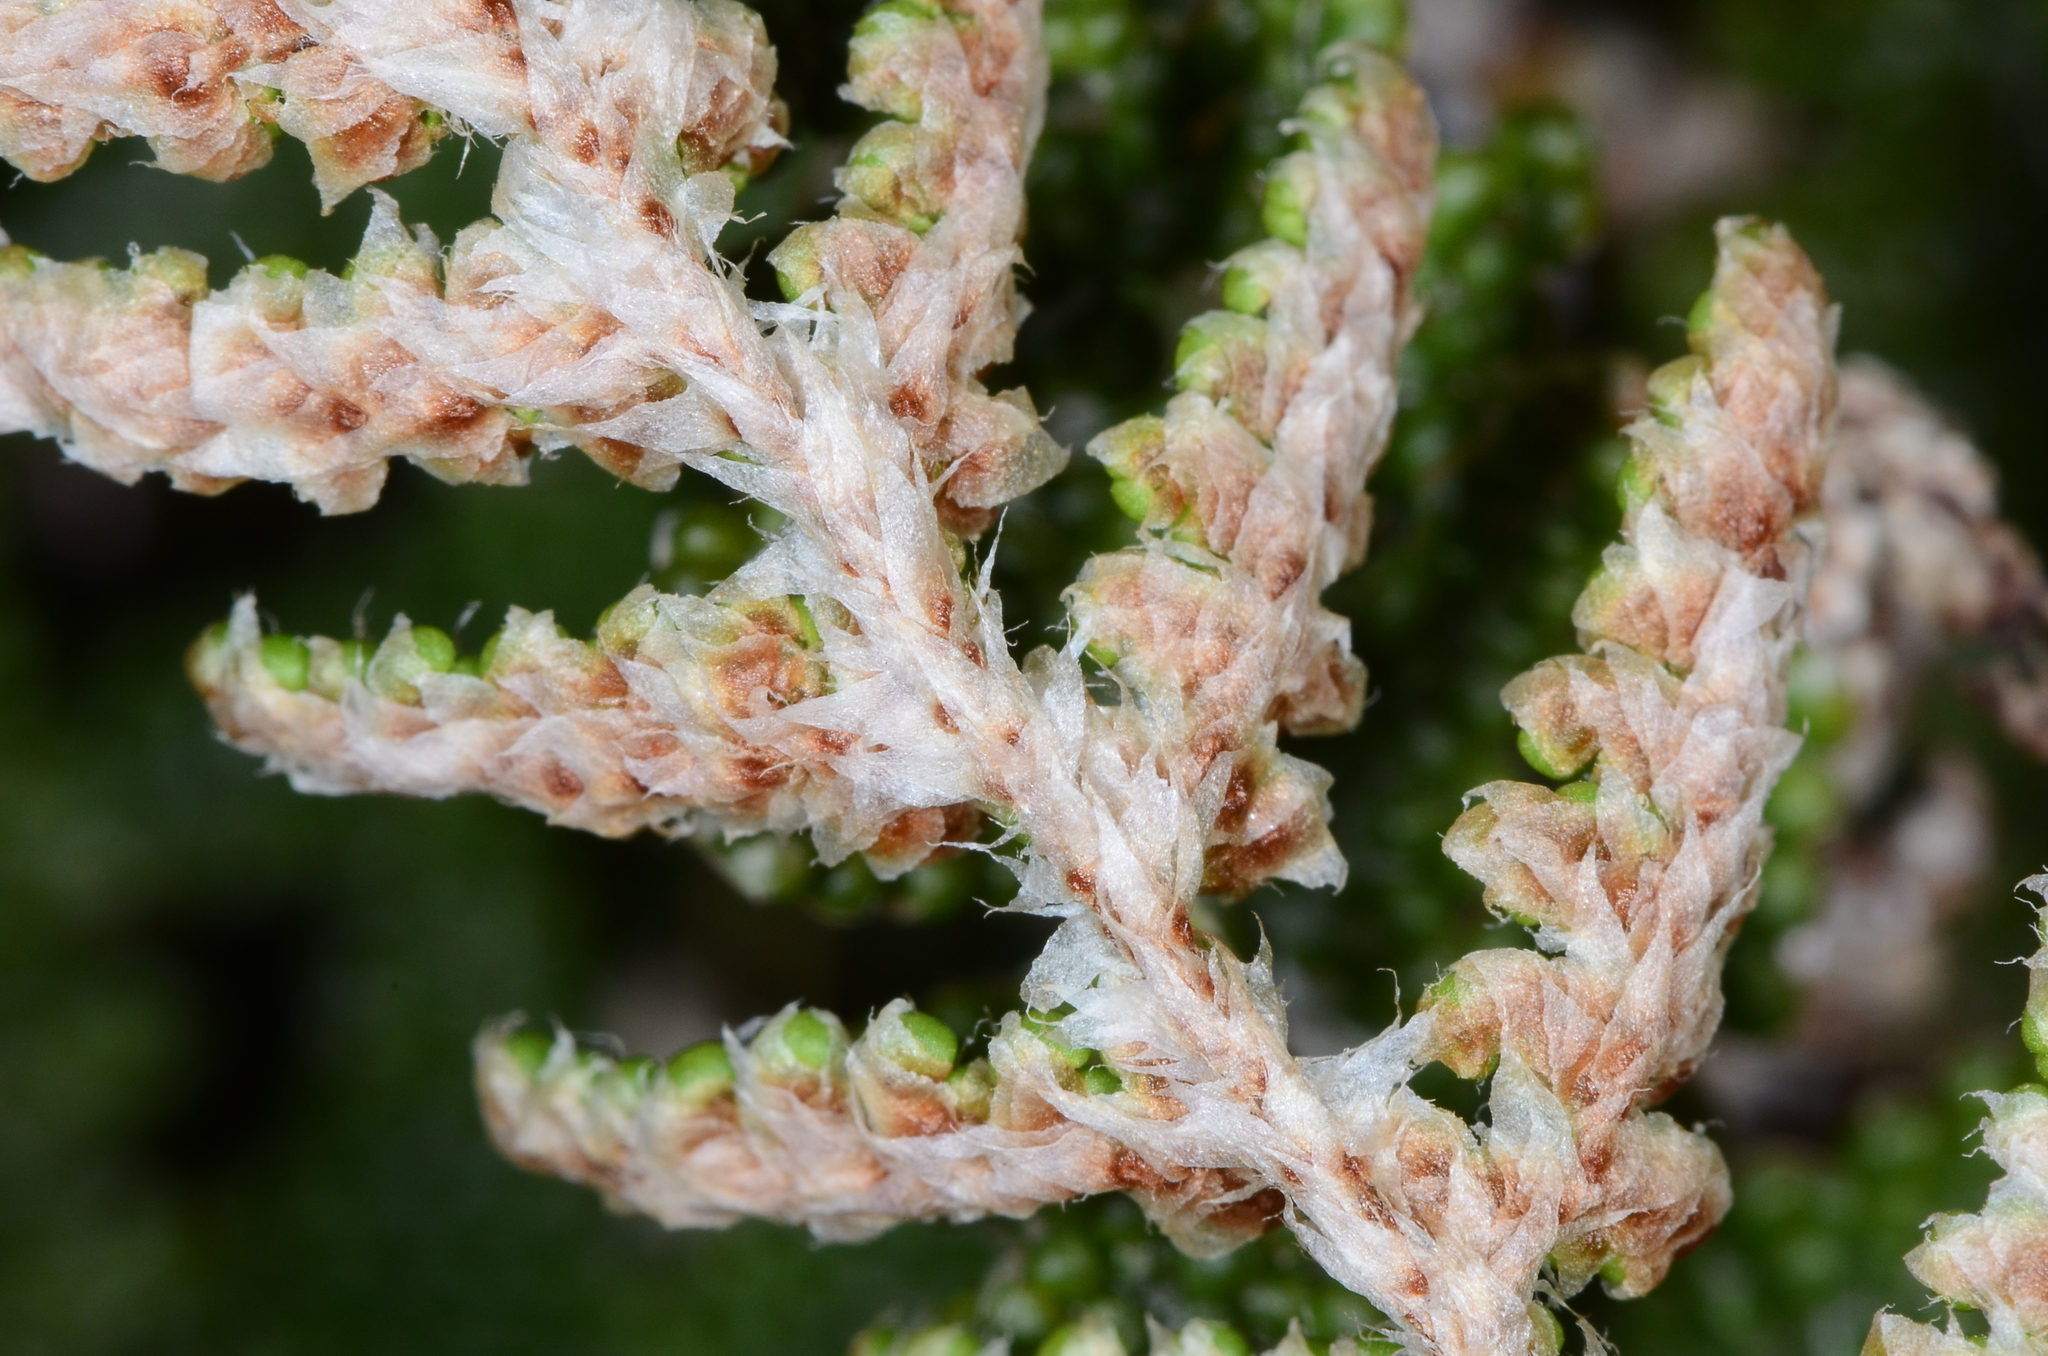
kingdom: Plantae
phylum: Tracheophyta
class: Polypodiopsida
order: Polypodiales
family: Pteridaceae
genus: Myriopteris
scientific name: Myriopteris covillei
